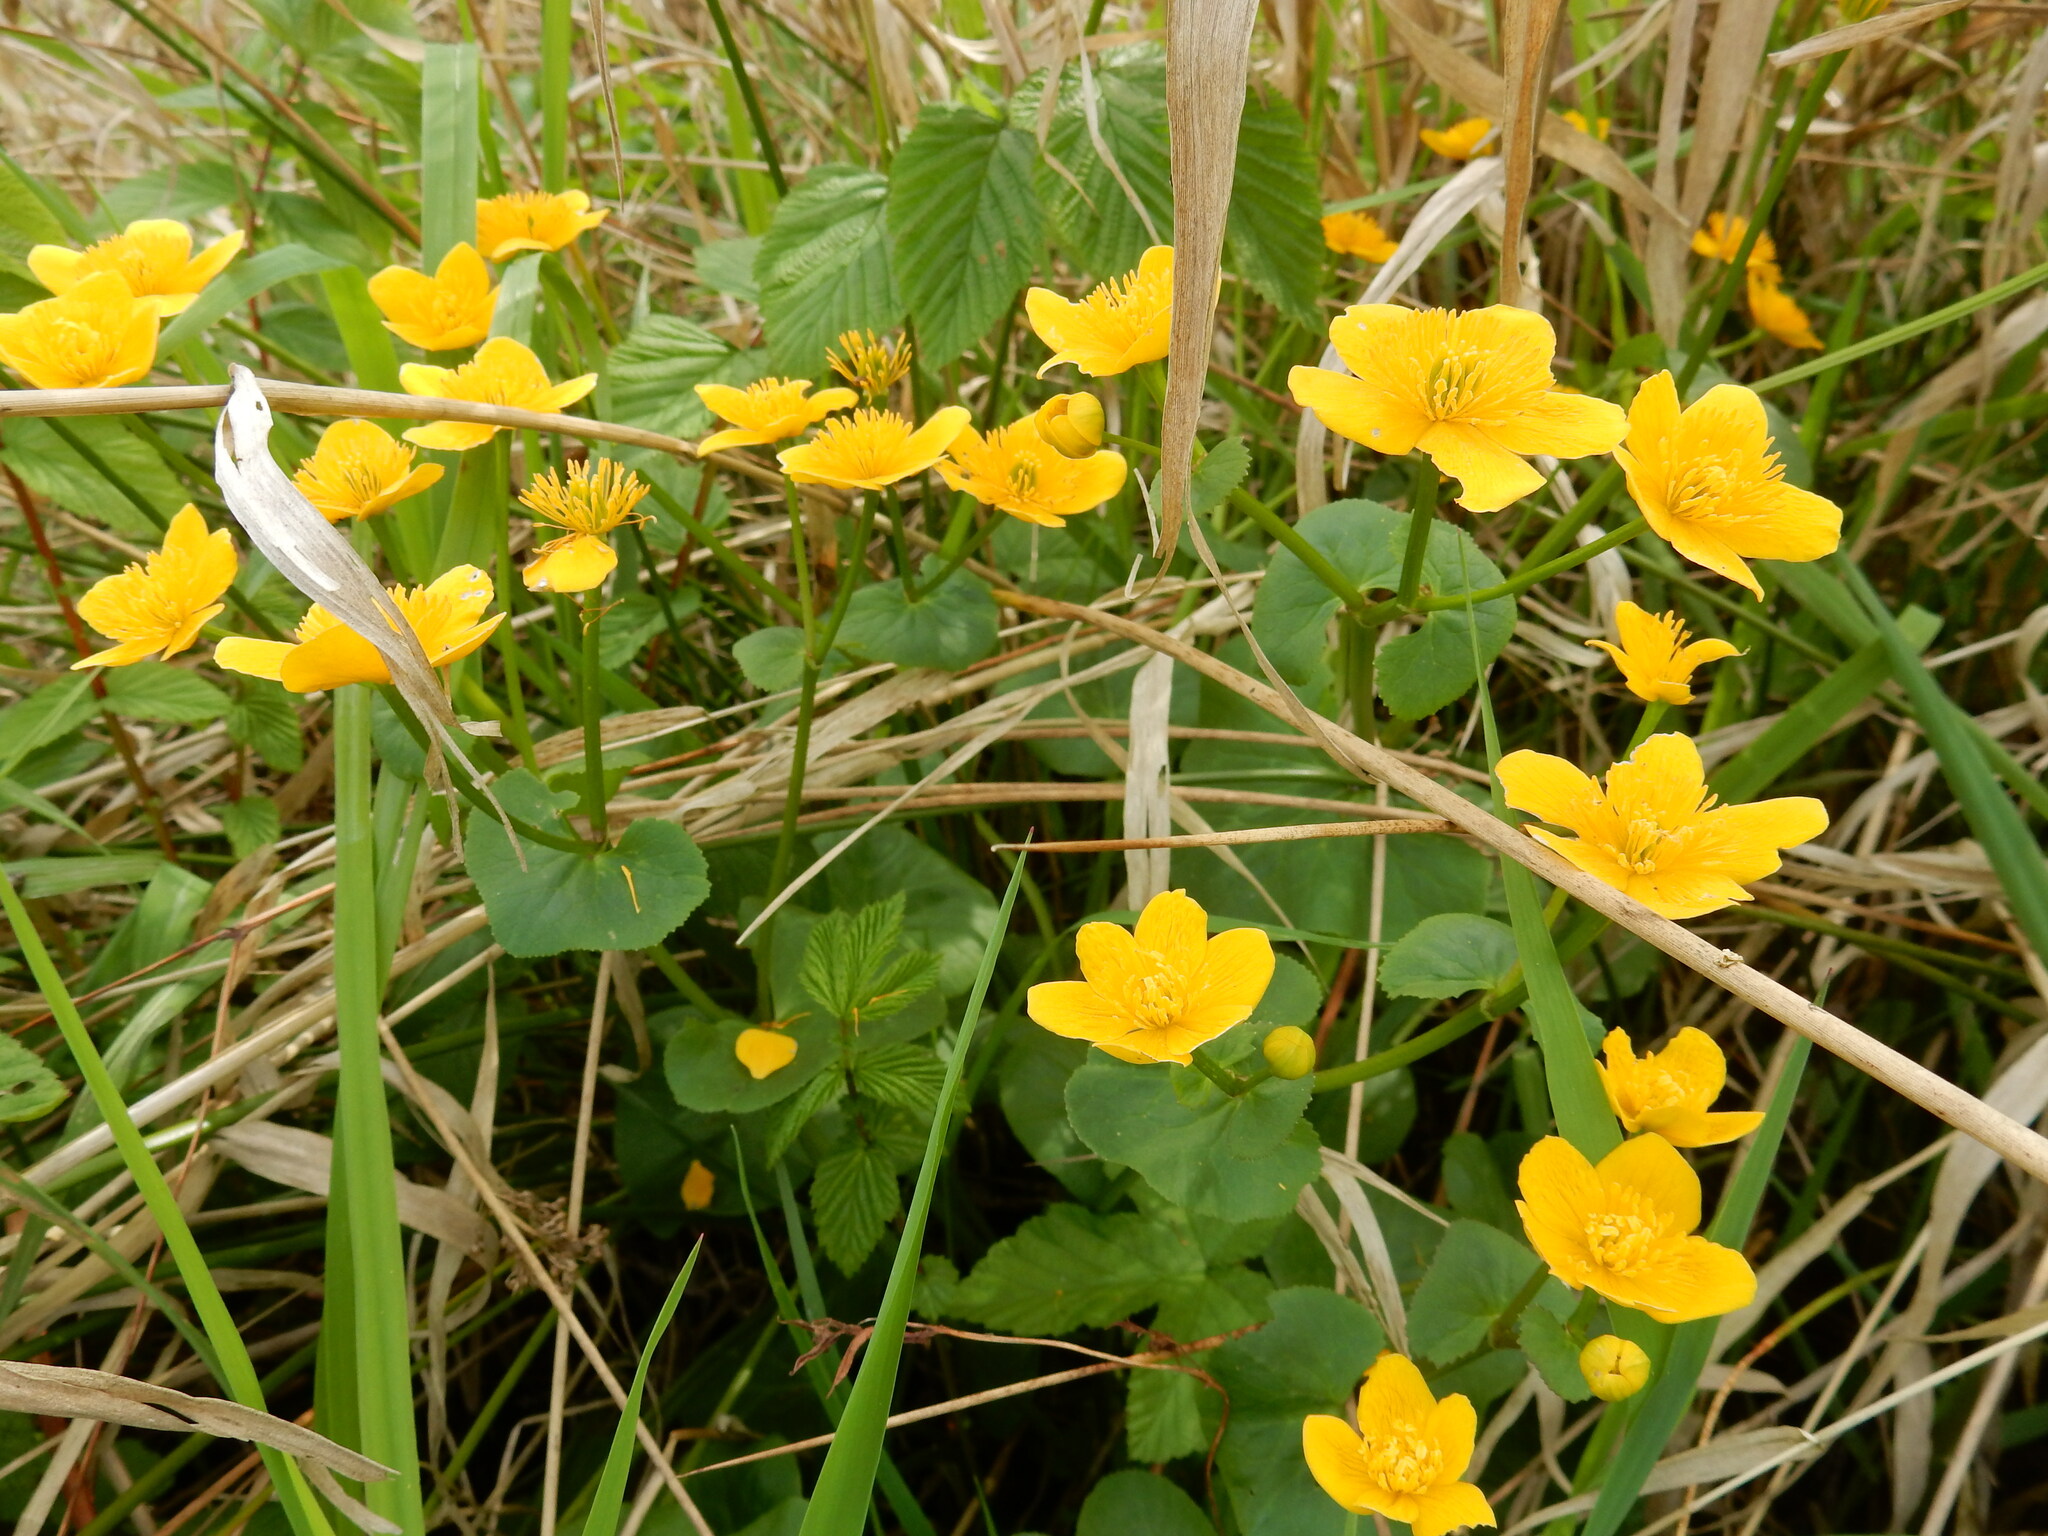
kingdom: Plantae
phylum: Tracheophyta
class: Magnoliopsida
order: Ranunculales
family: Ranunculaceae
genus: Caltha
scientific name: Caltha palustris
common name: Marsh marigold
